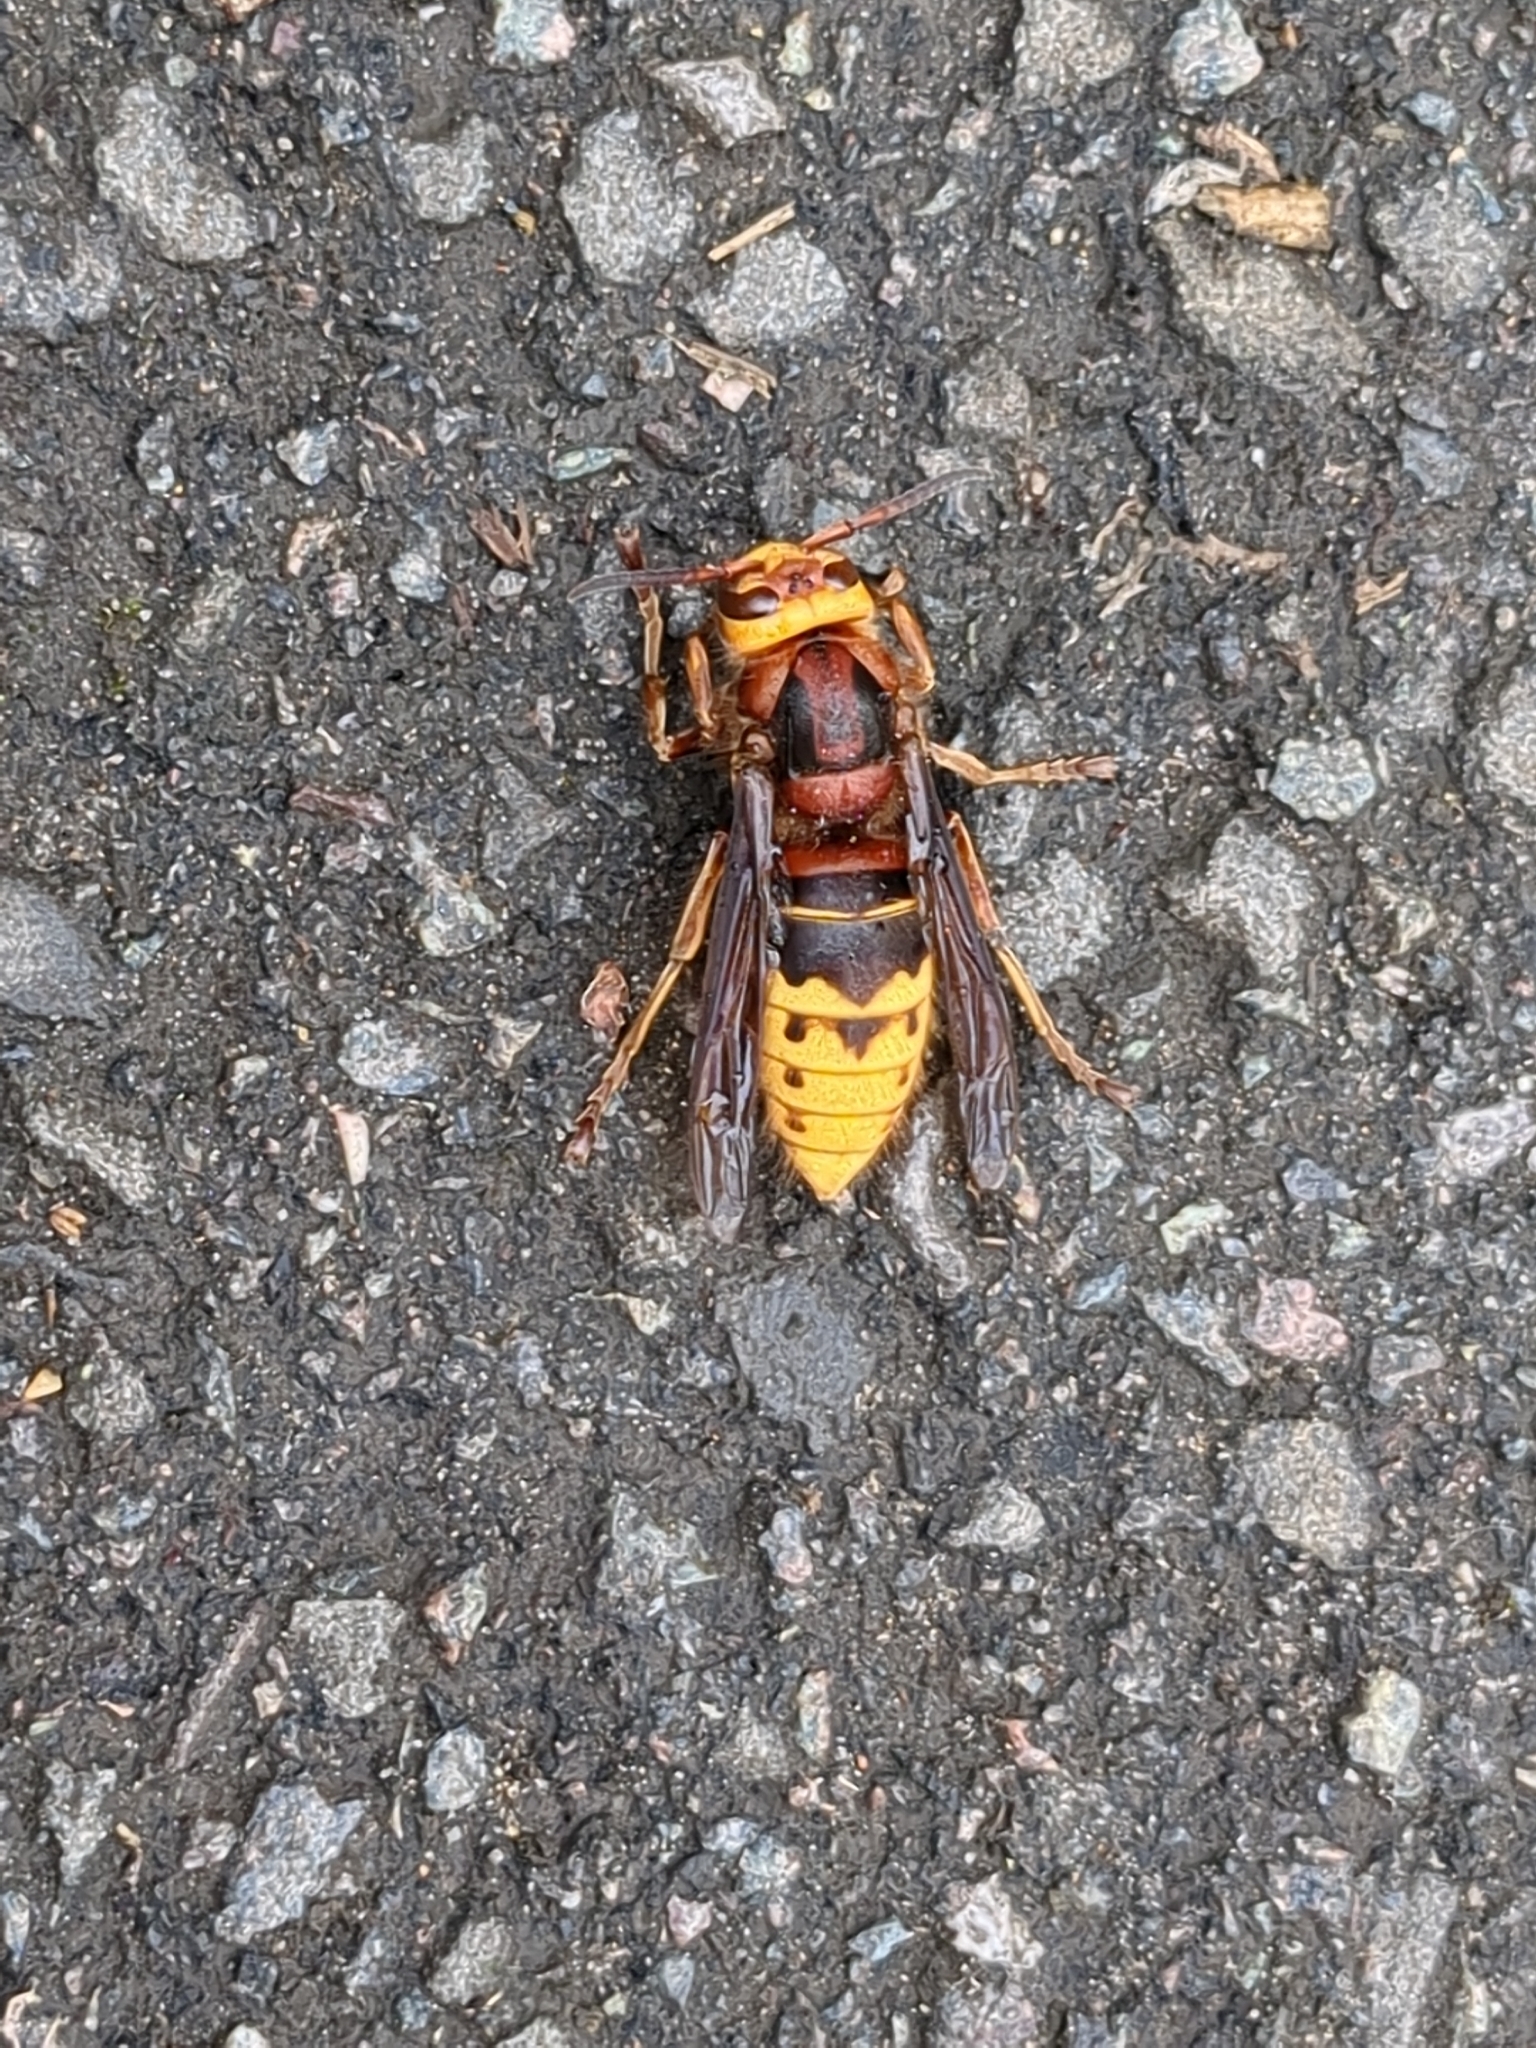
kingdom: Animalia
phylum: Arthropoda
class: Insecta
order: Hymenoptera
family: Vespidae
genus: Vespa
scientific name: Vespa crabro
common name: Hornet
